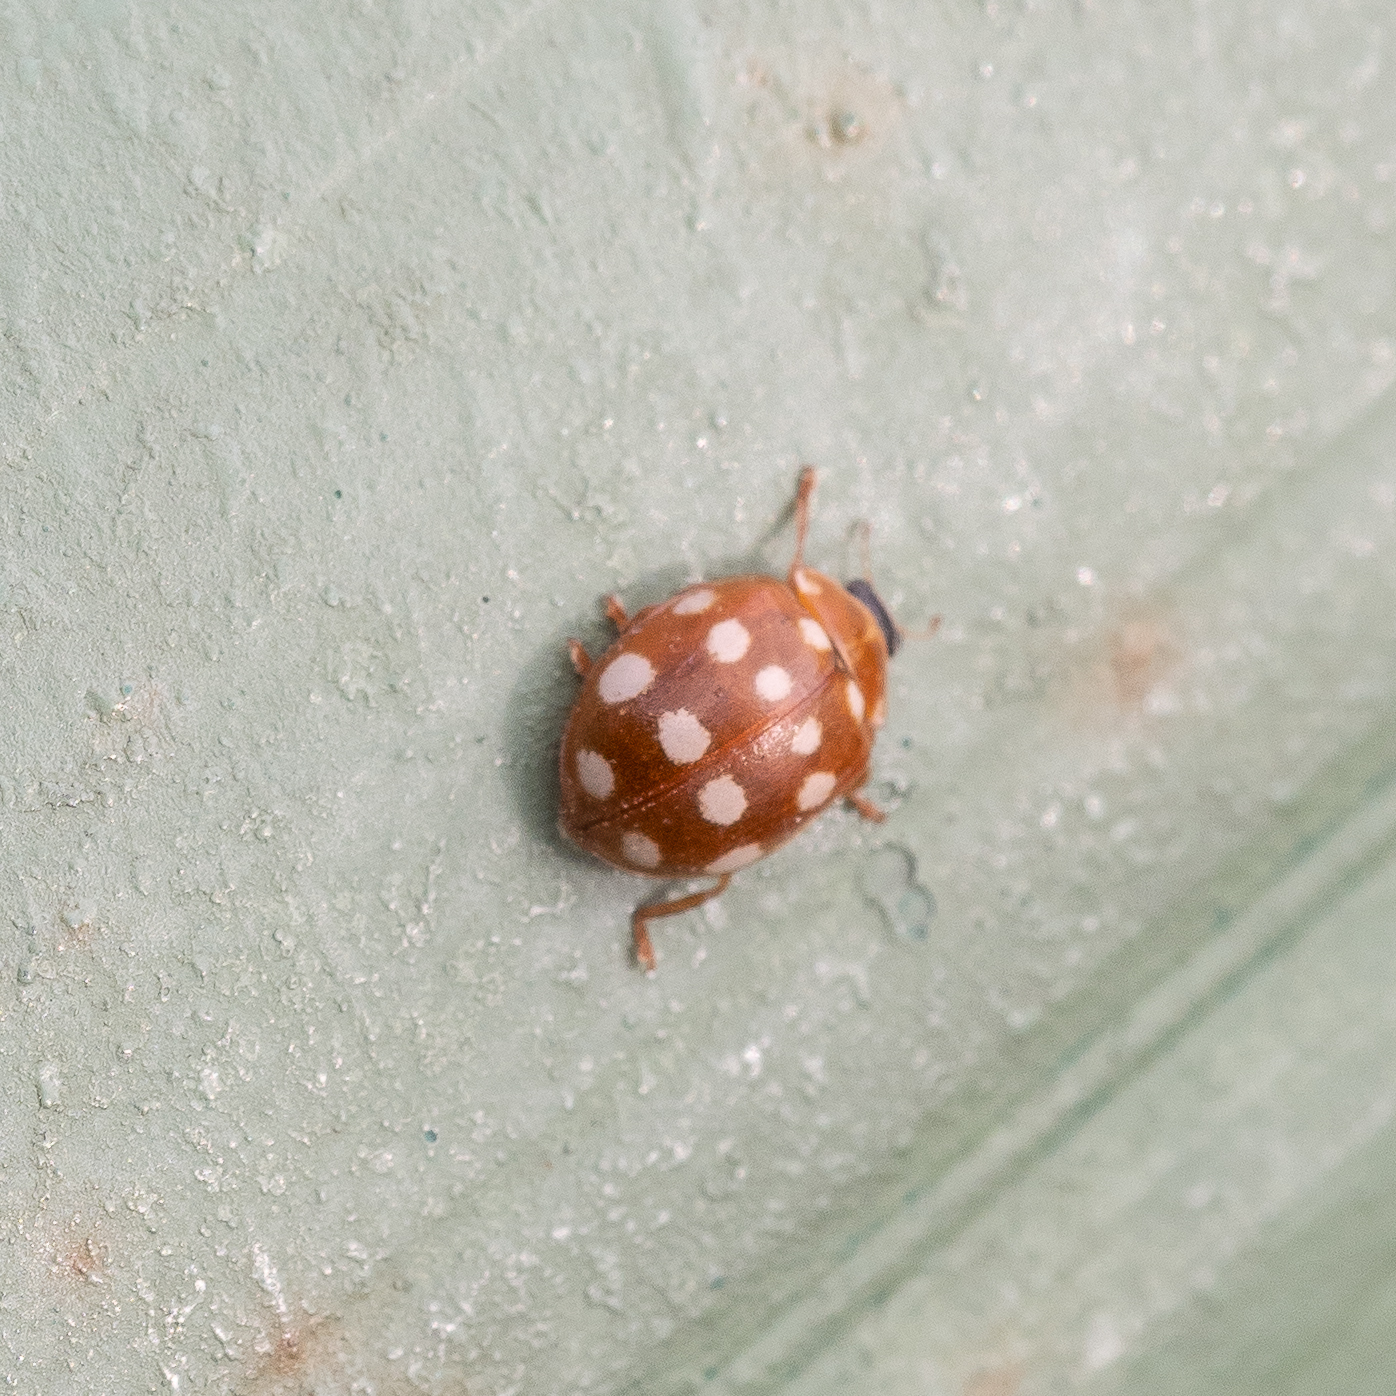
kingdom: Animalia
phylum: Arthropoda
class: Insecta
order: Coleoptera
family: Coccinellidae
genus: Calvia
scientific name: Calvia quatuordecimguttata
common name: Cream-spot ladybird
